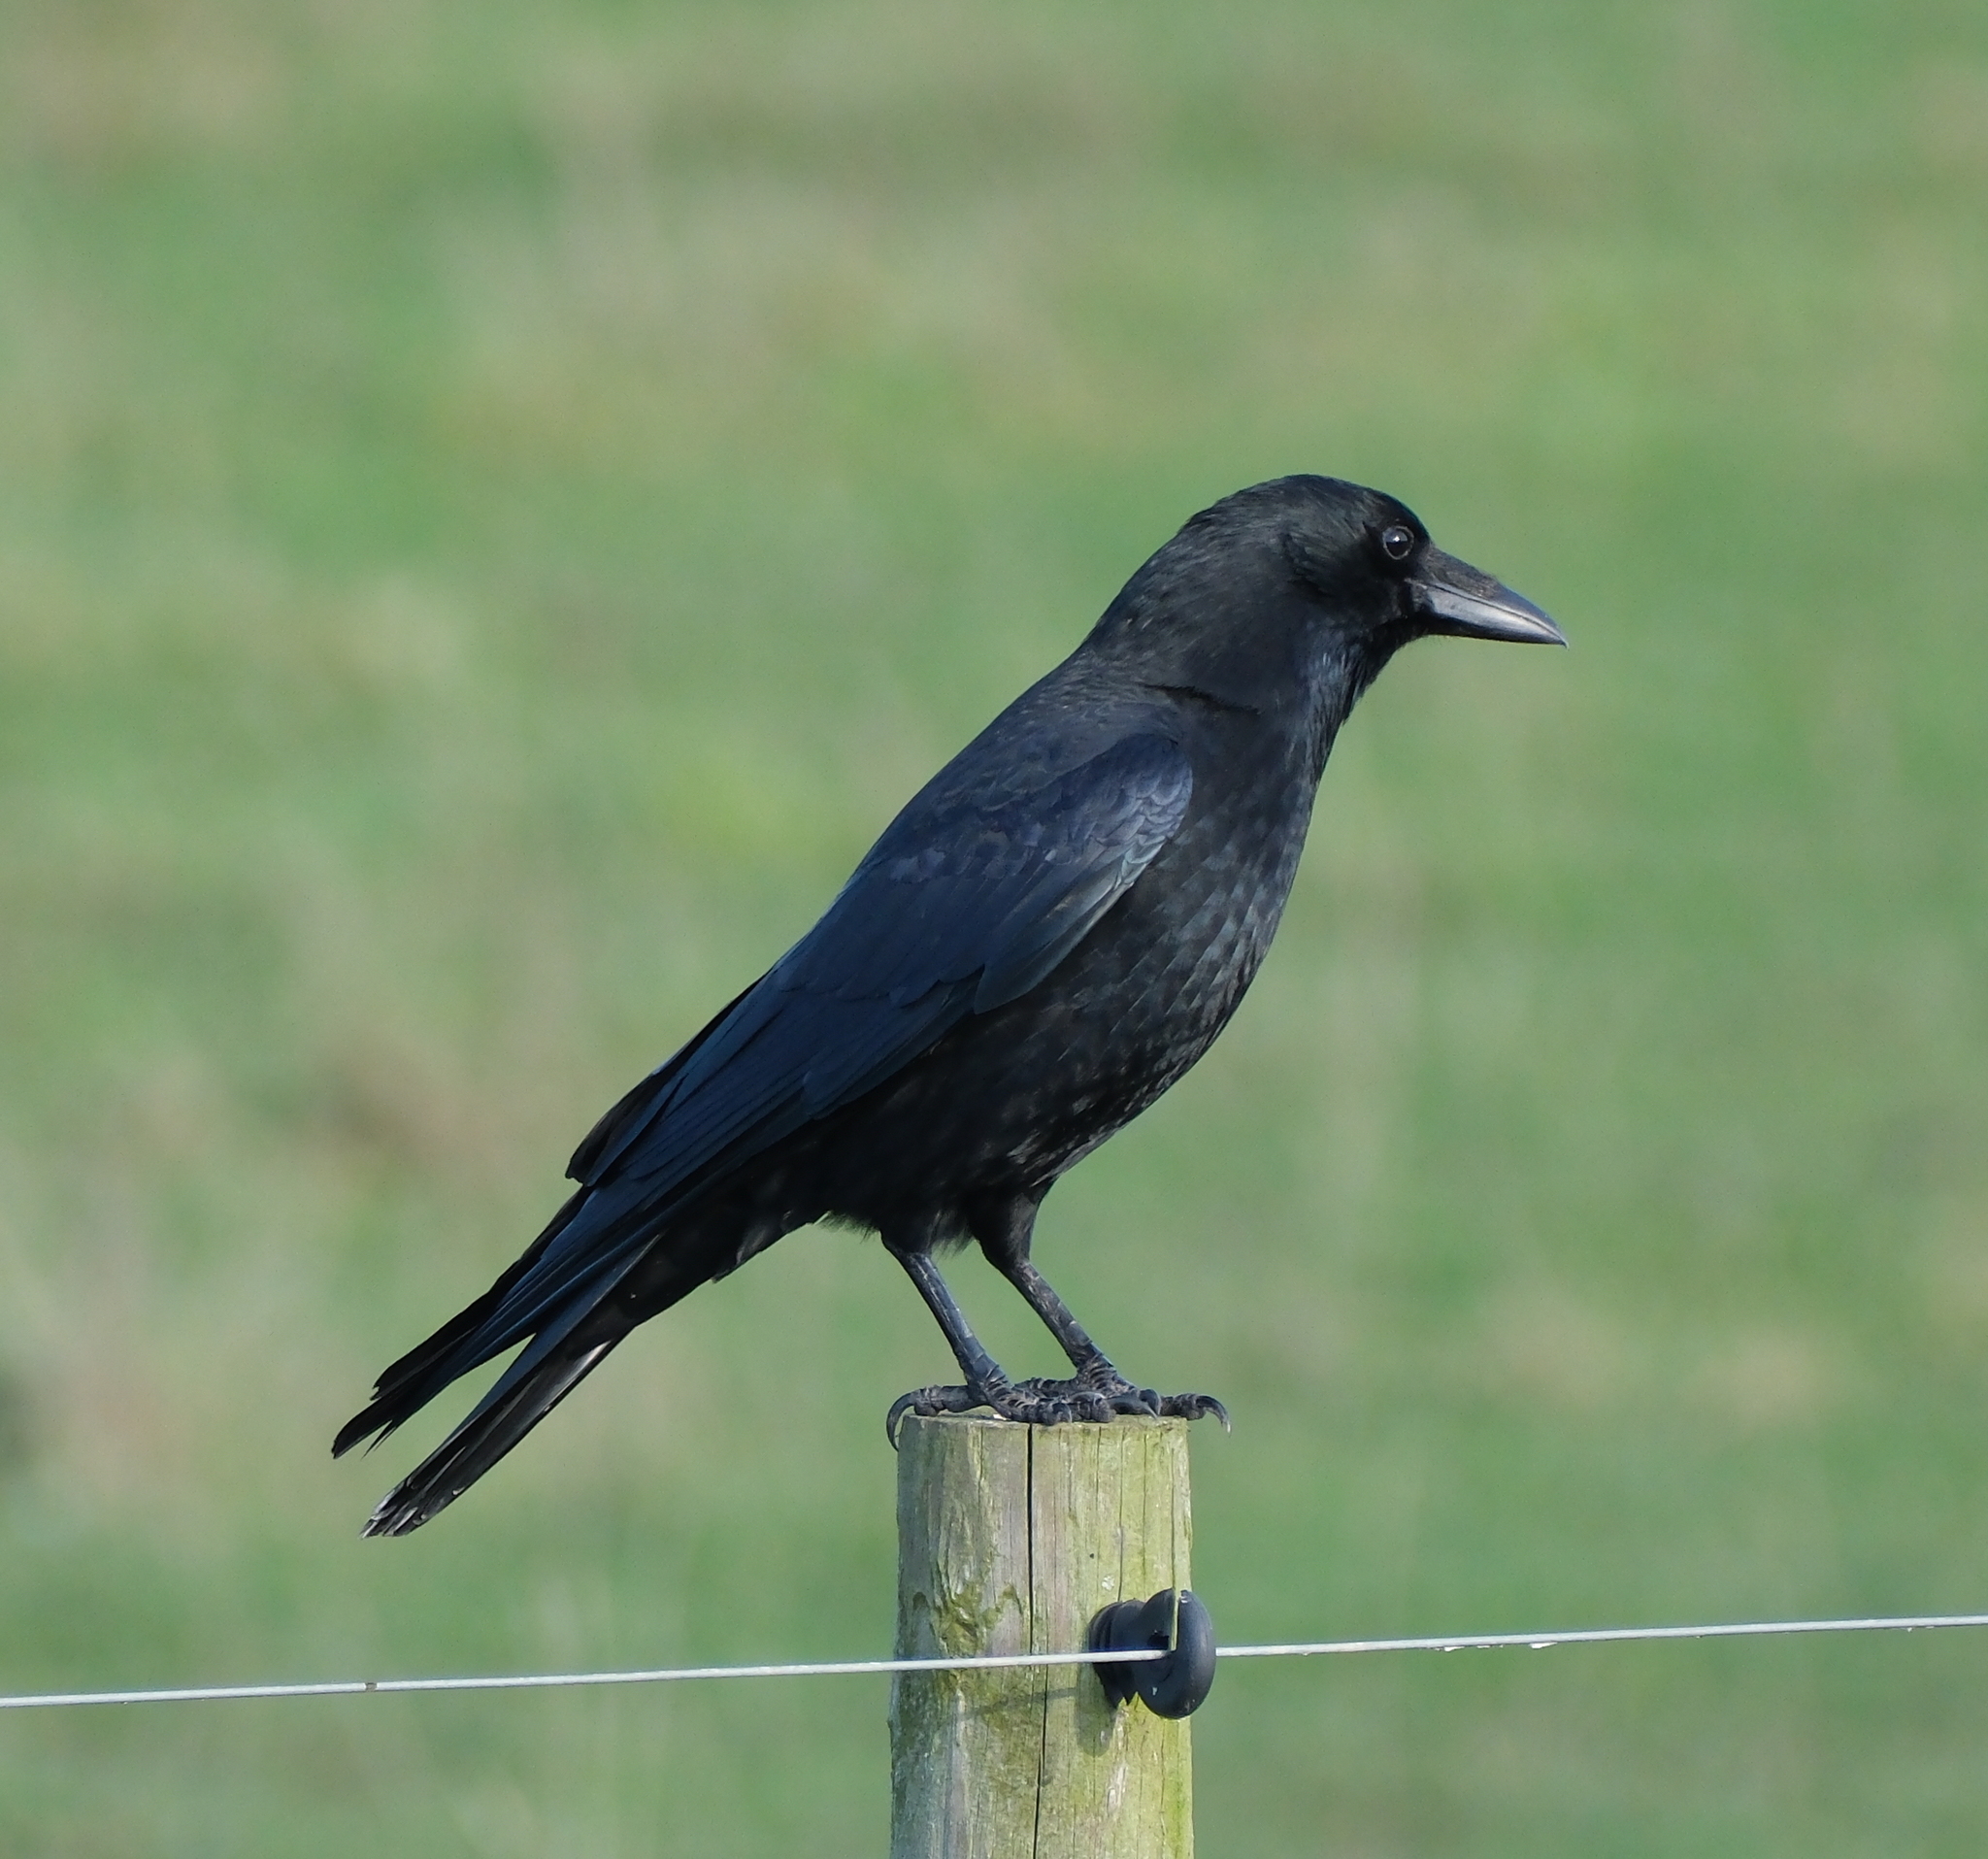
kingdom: Animalia
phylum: Chordata
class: Aves
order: Passeriformes
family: Corvidae
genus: Corvus
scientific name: Corvus corone
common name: Carrion crow
